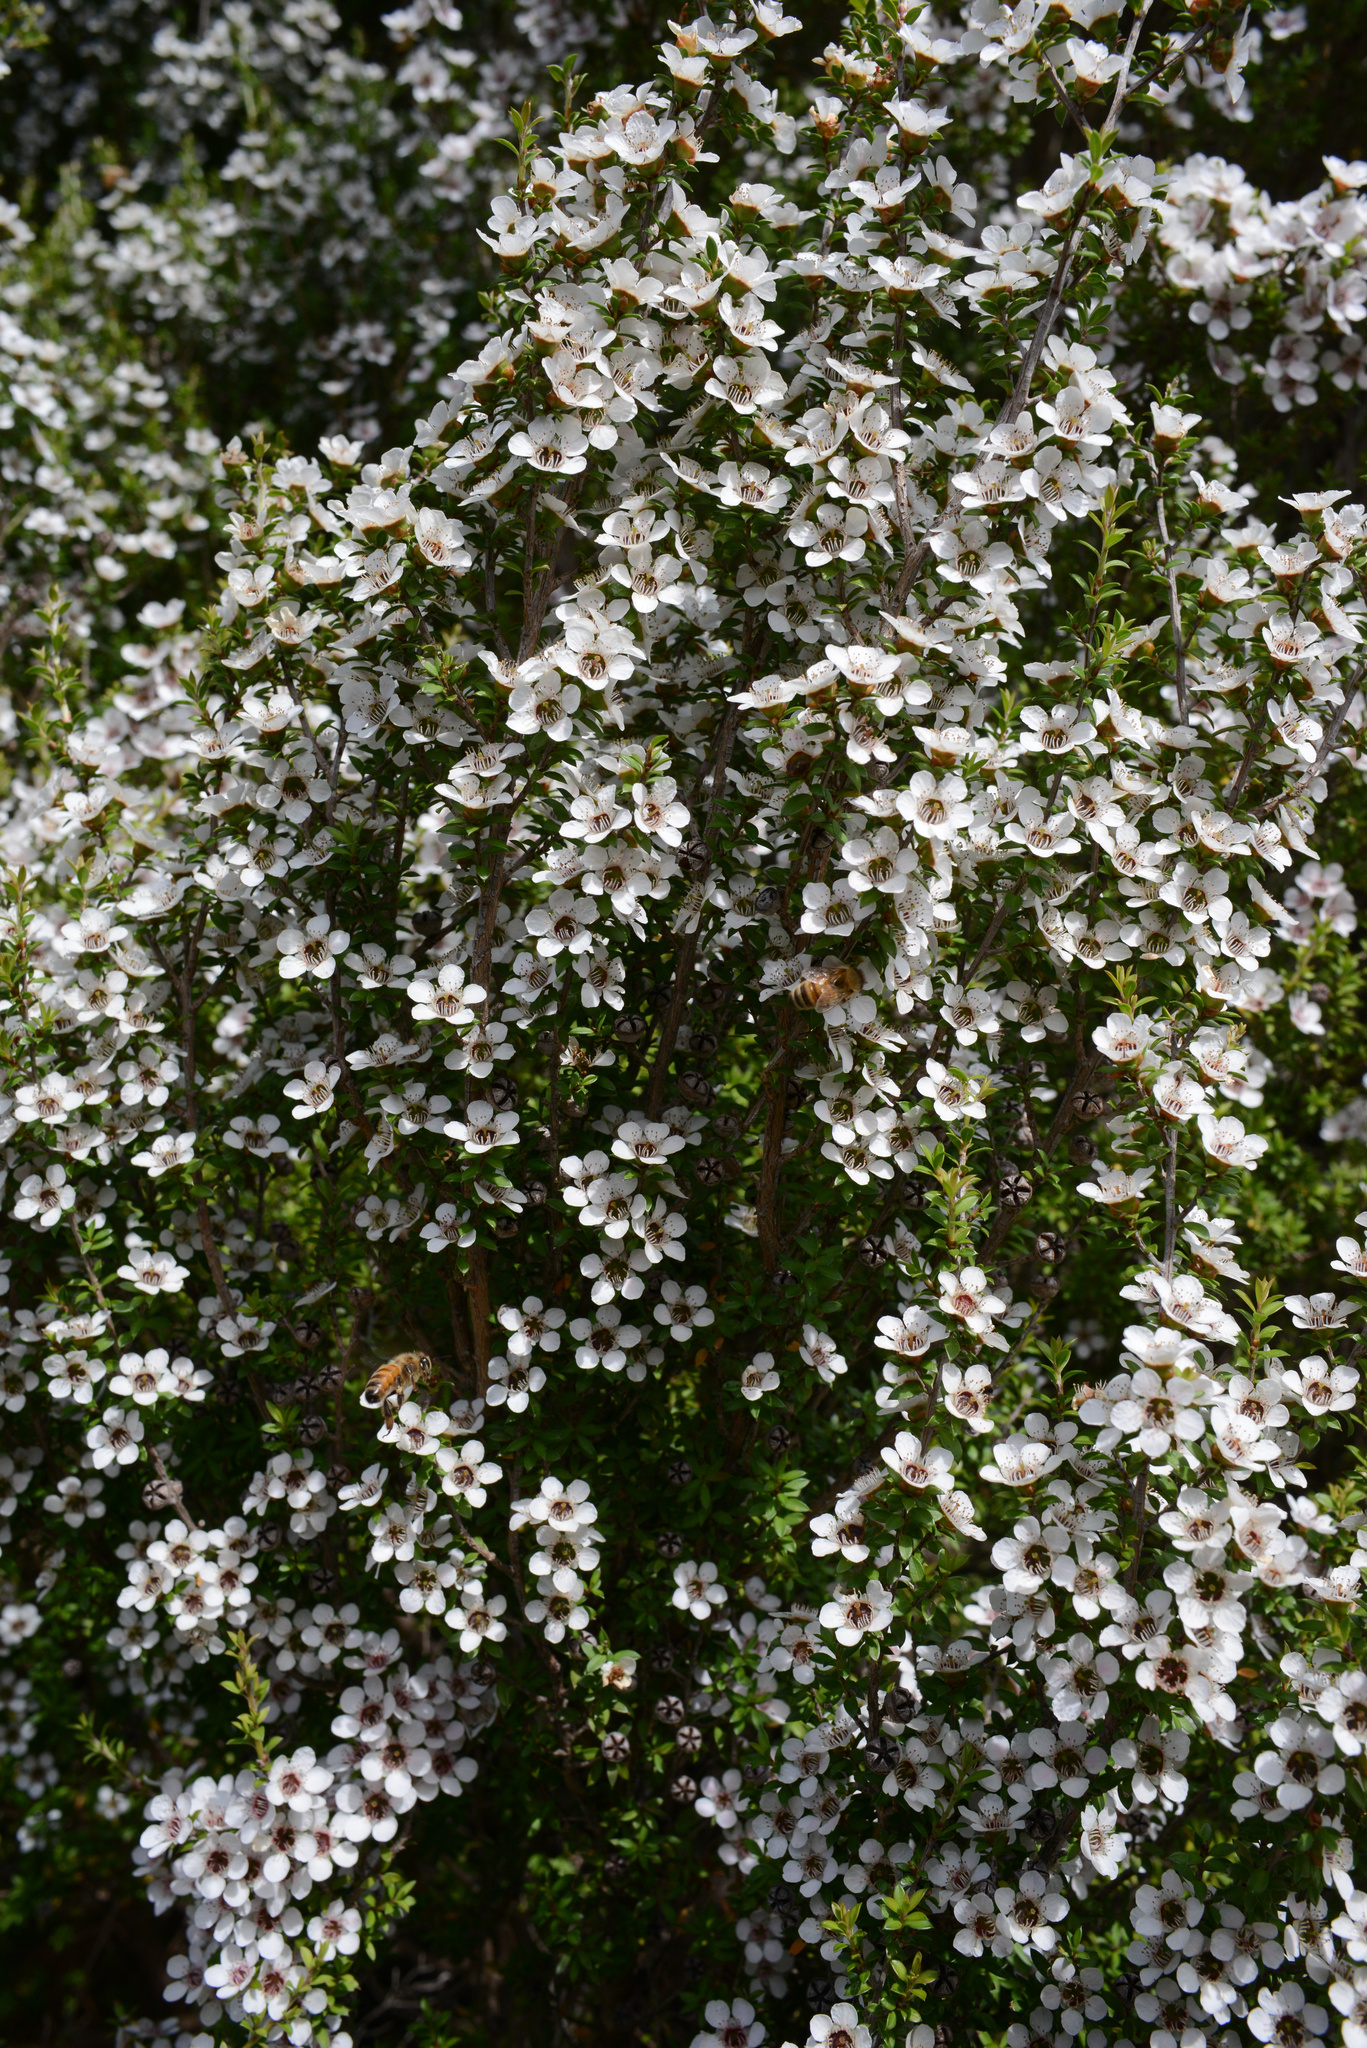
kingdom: Plantae
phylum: Tracheophyta
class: Magnoliopsida
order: Myrtales
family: Myrtaceae
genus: Leptospermum
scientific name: Leptospermum scoparium
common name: Broom tea-tree
